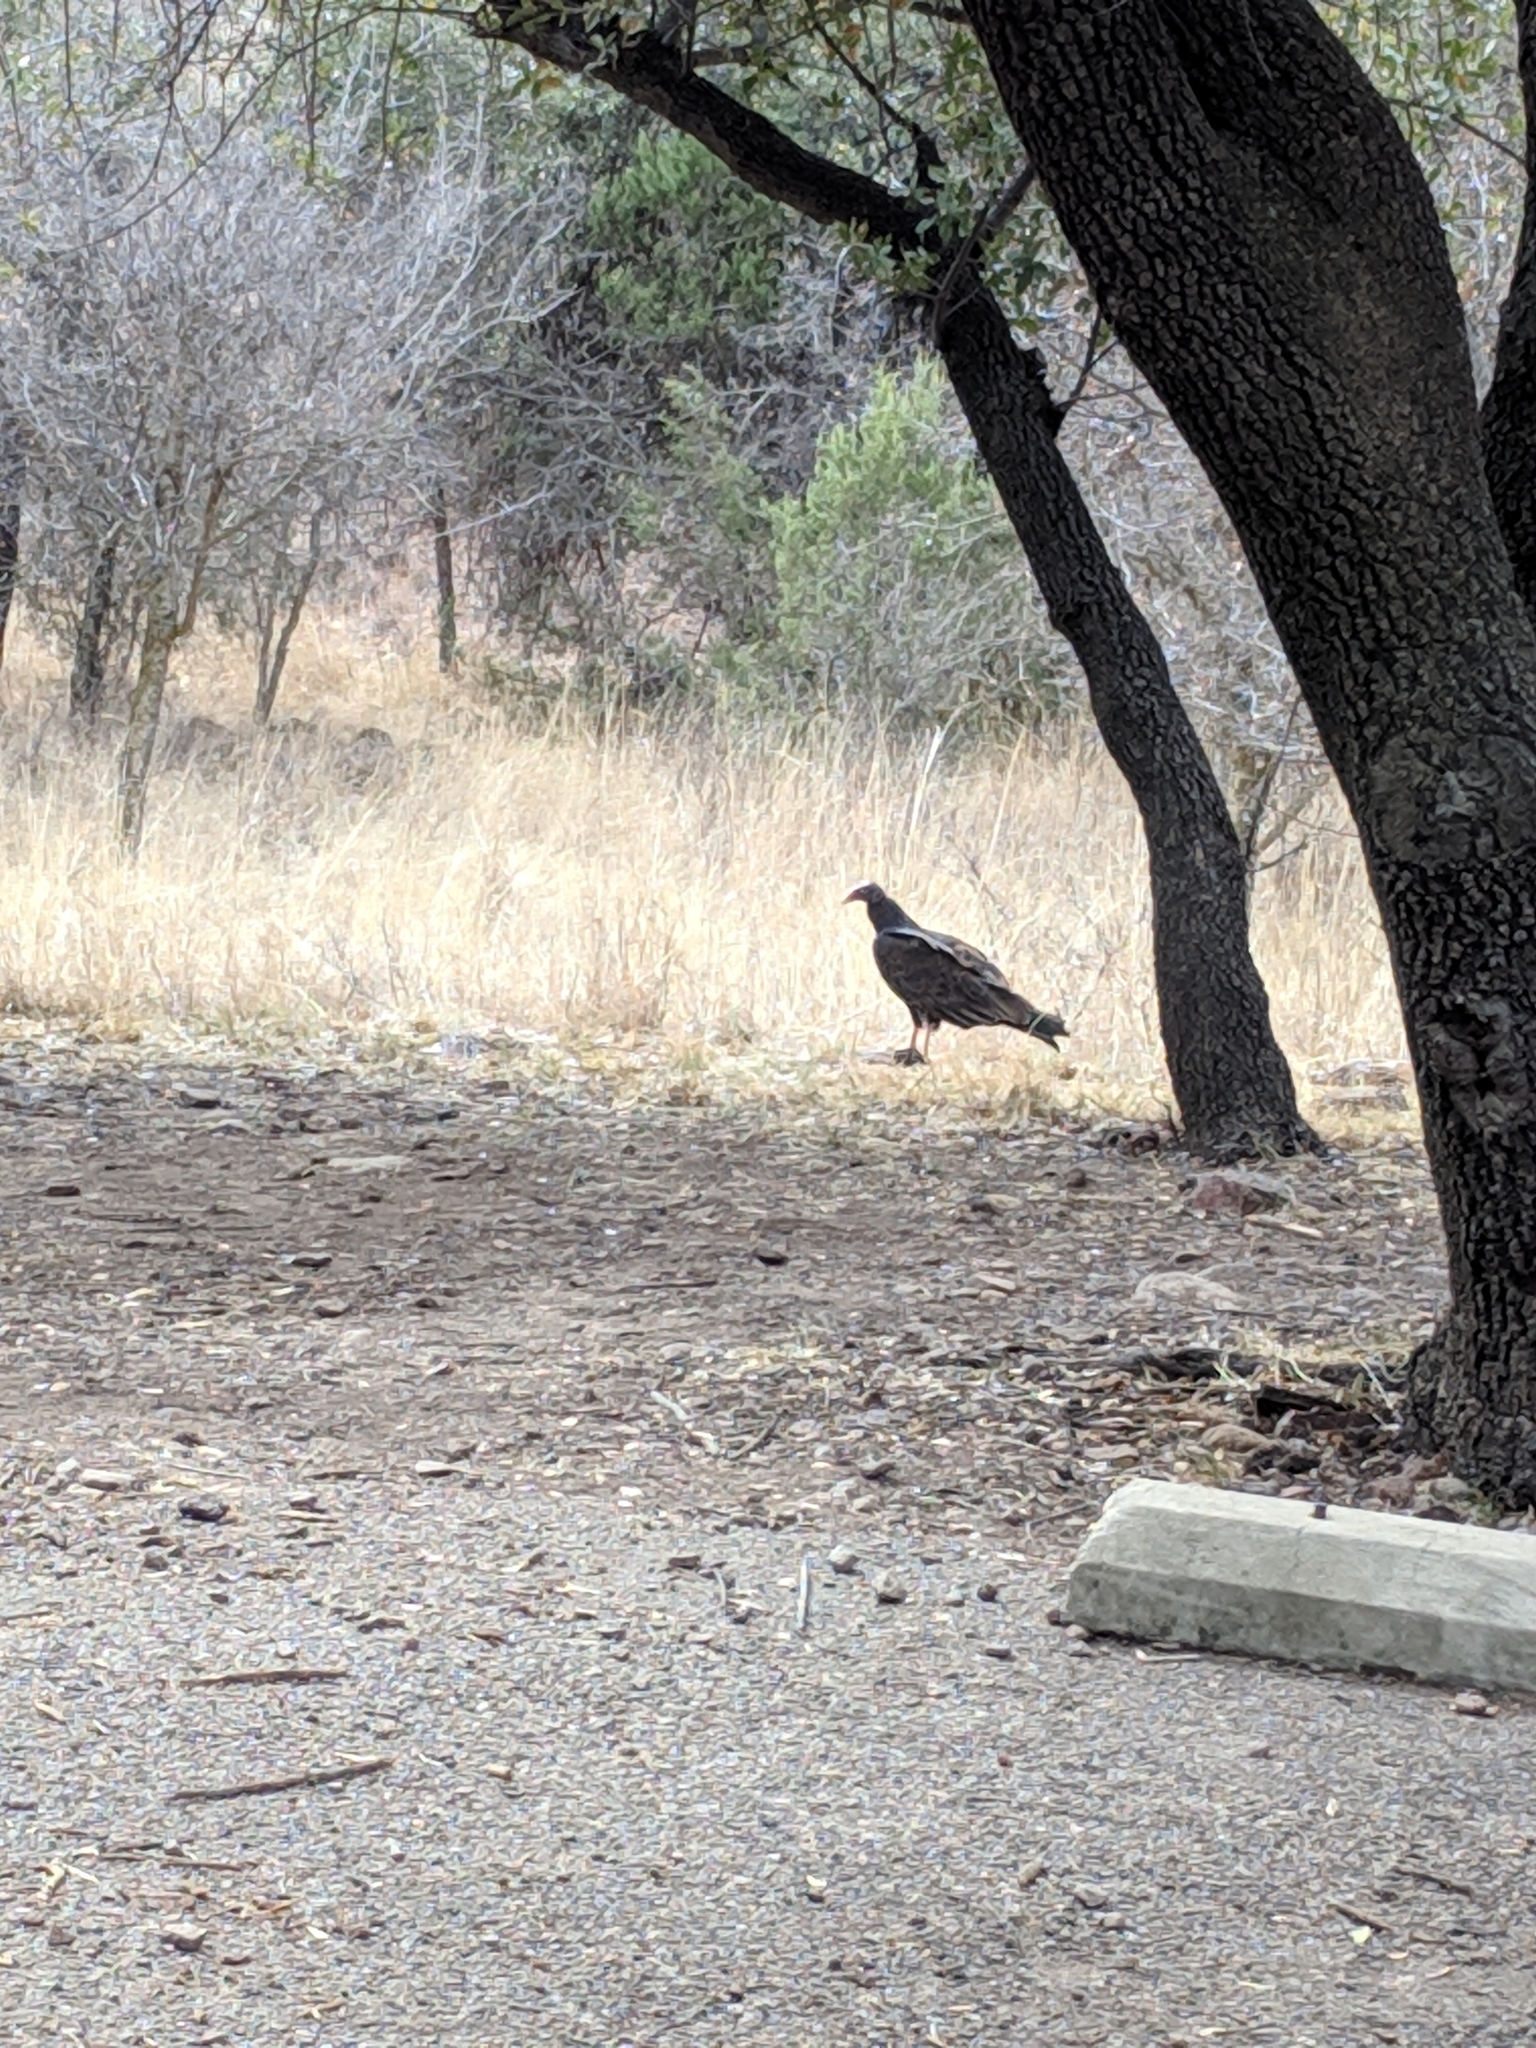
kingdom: Animalia
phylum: Chordata
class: Aves
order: Accipitriformes
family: Cathartidae
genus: Cathartes
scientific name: Cathartes aura
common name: Turkey vulture
